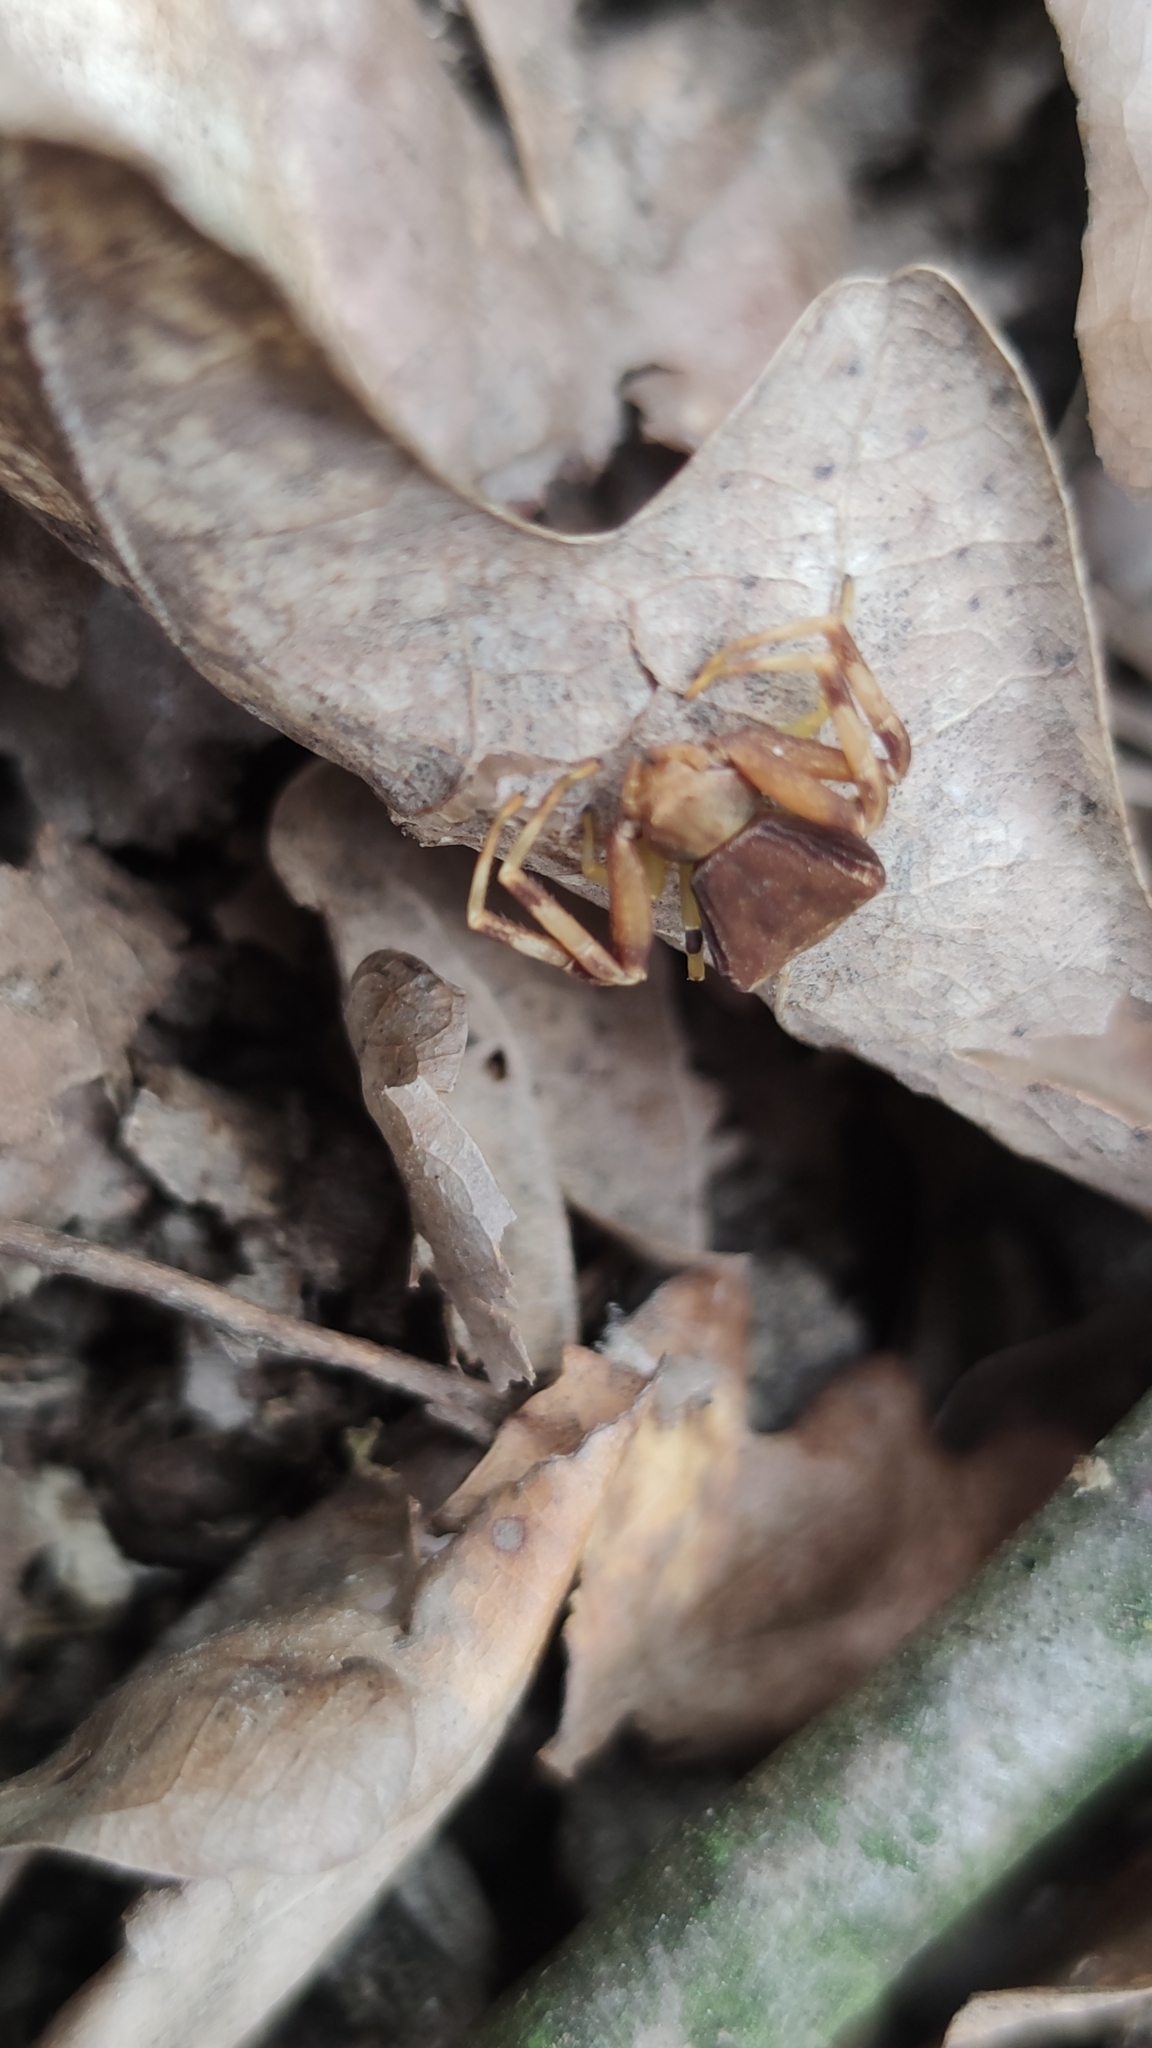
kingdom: Animalia
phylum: Arthropoda
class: Arachnida
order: Araneae
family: Thomisidae
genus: Pistius
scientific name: Pistius truncatus
